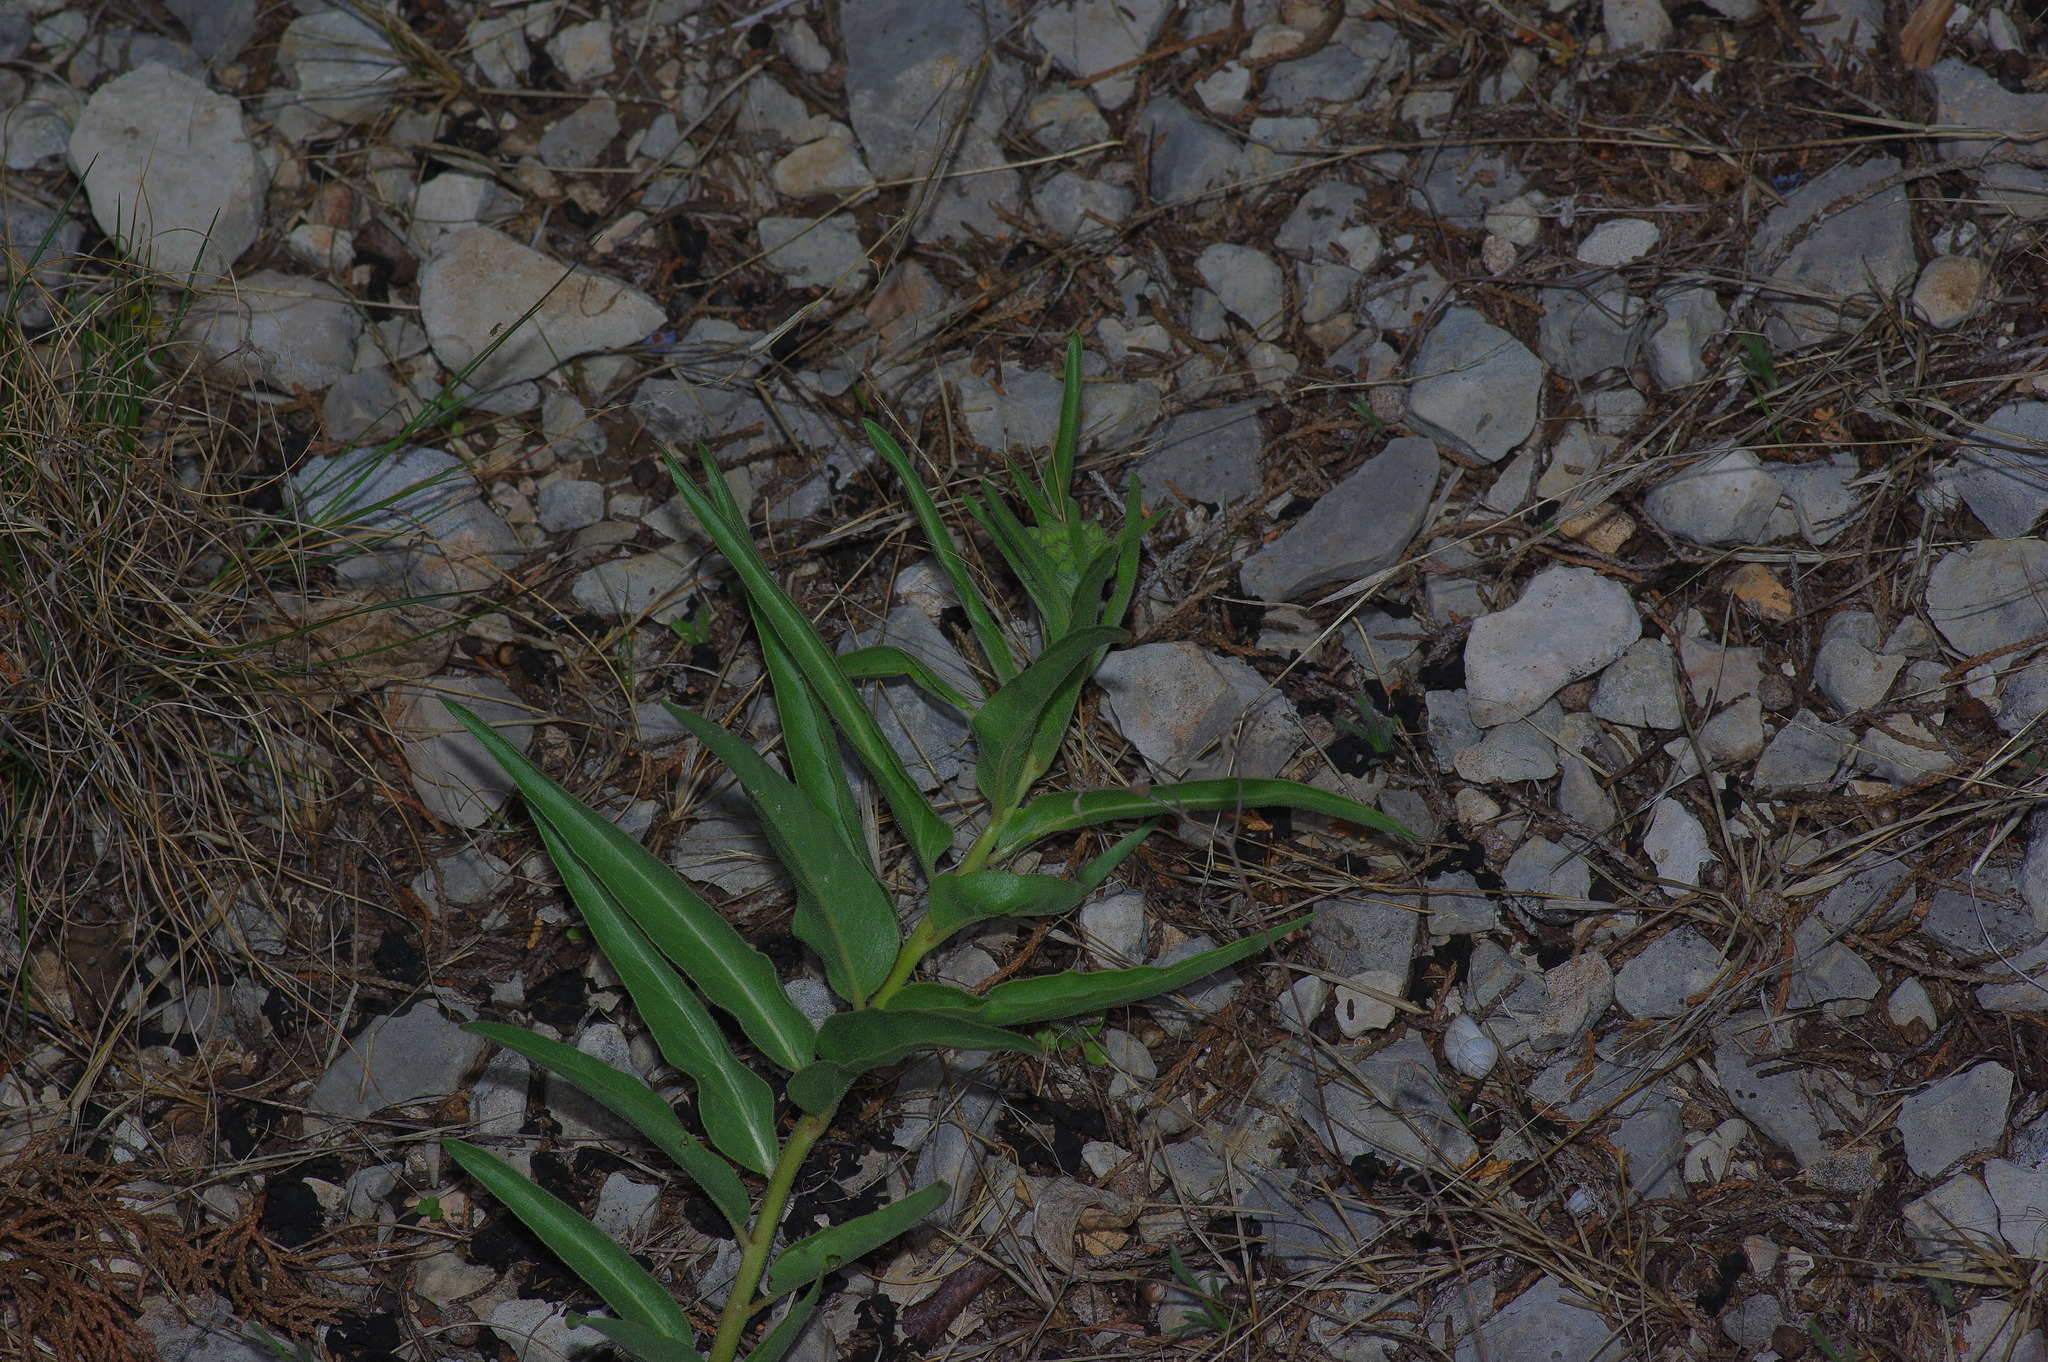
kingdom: Plantae
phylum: Tracheophyta
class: Magnoliopsida
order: Gentianales
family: Apocynaceae
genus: Asclepias
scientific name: Asclepias asperula
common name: Antelope horns
